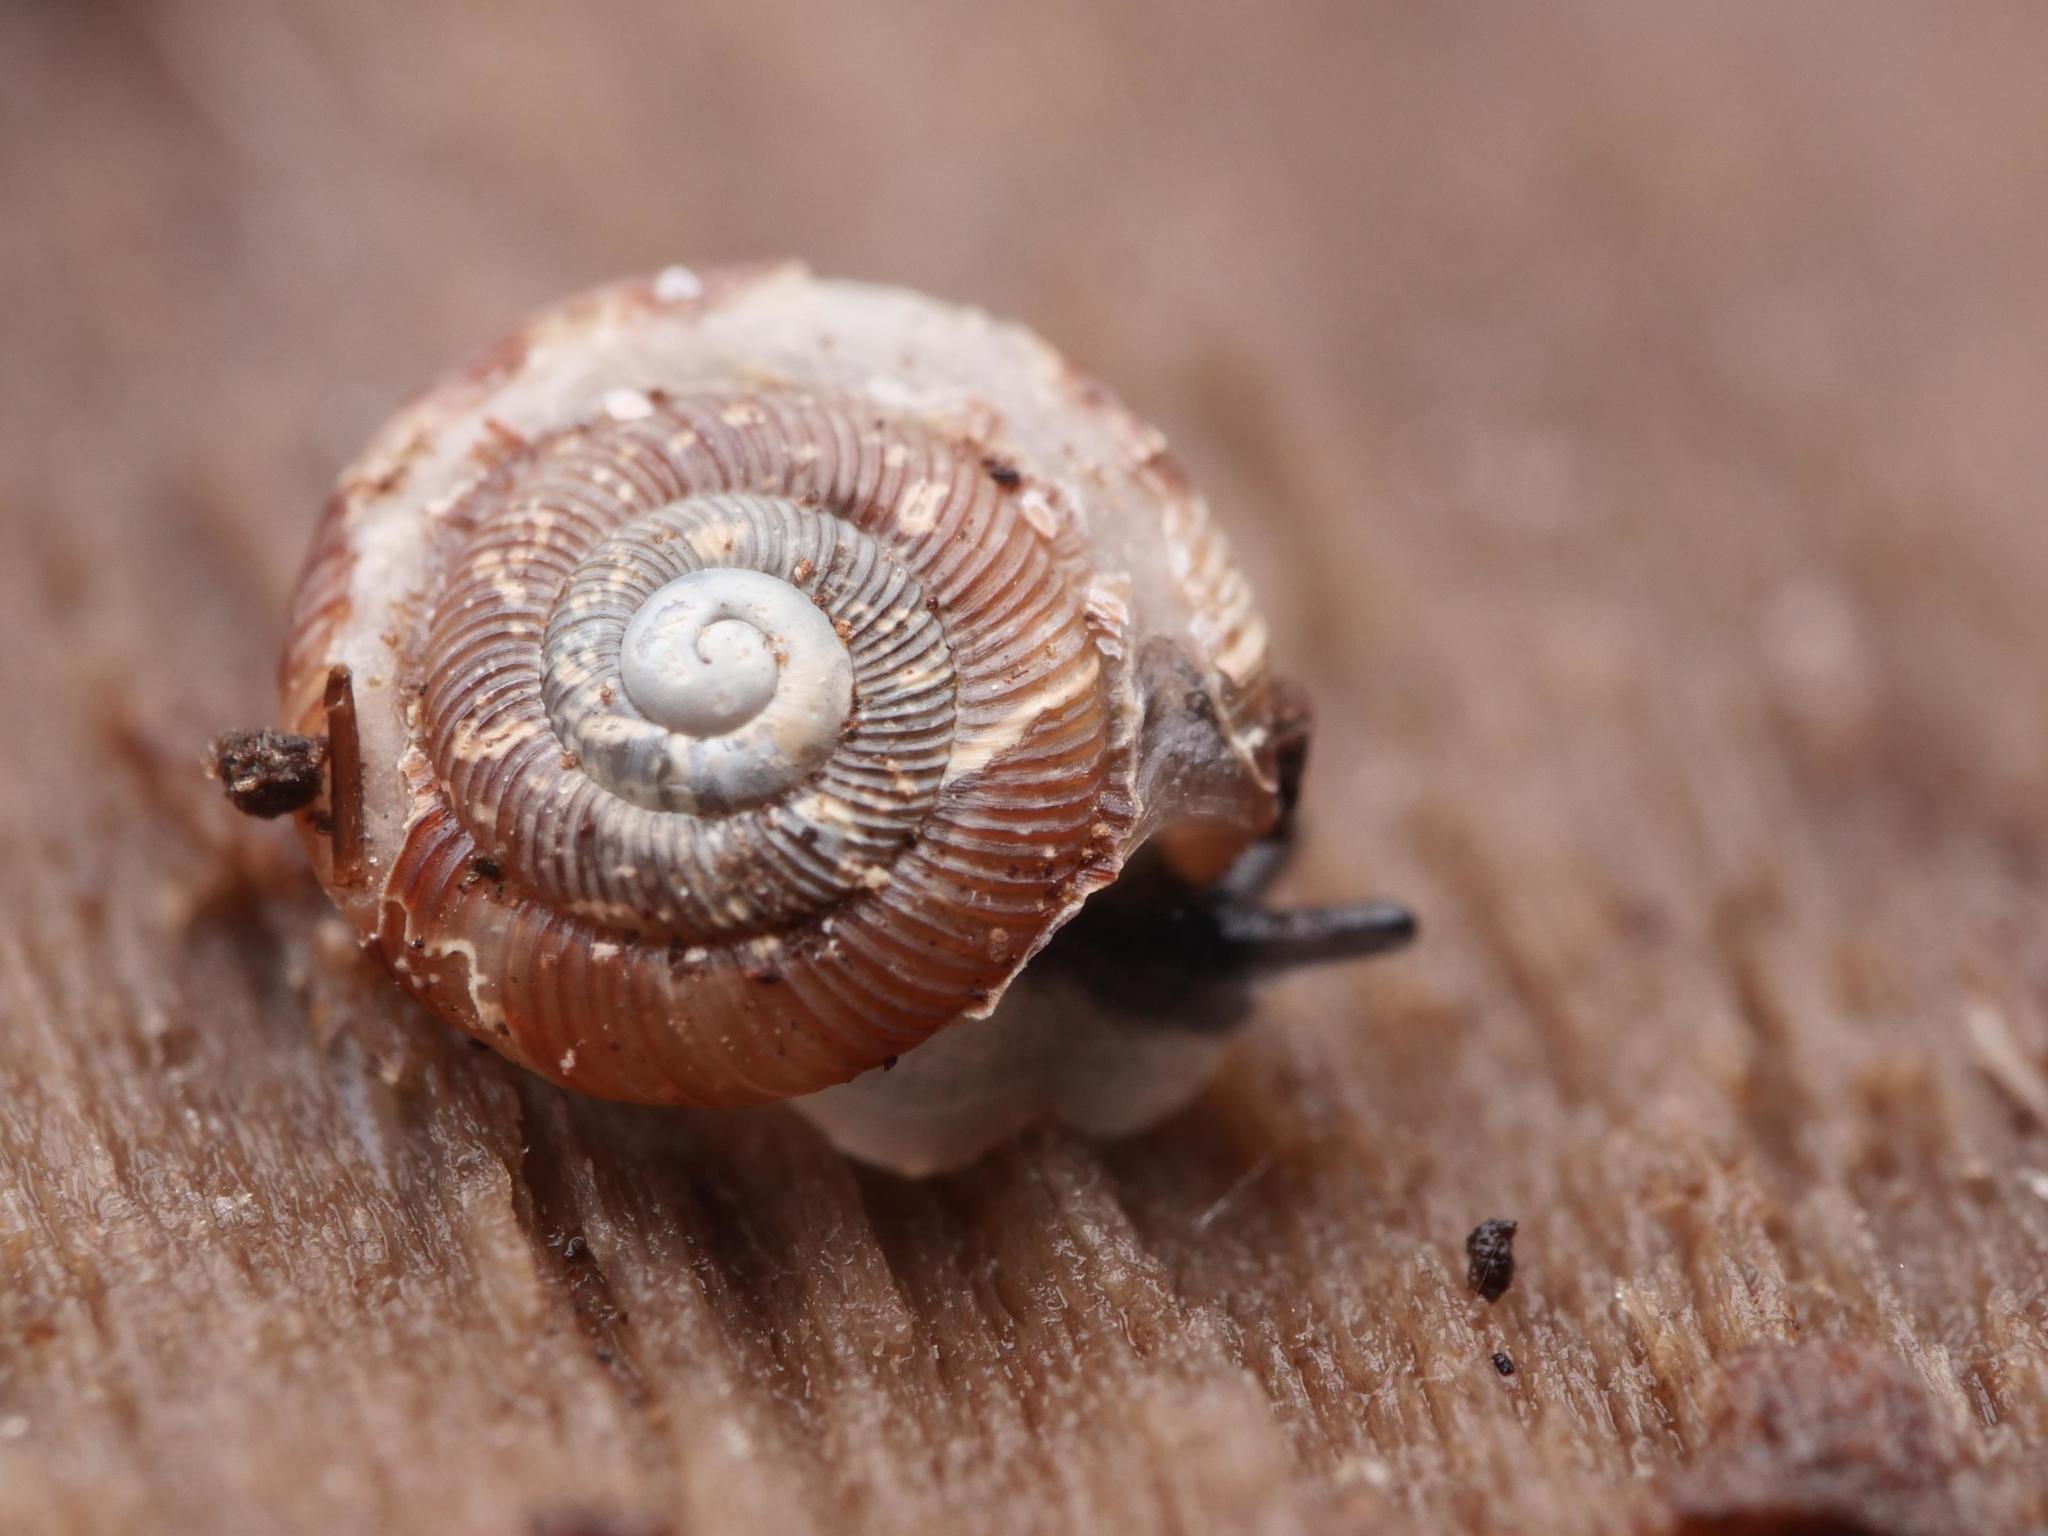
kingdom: Animalia
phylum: Mollusca
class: Gastropoda
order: Stylommatophora
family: Discidae
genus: Discus
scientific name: Discus rotundatus
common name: Rounded snail
